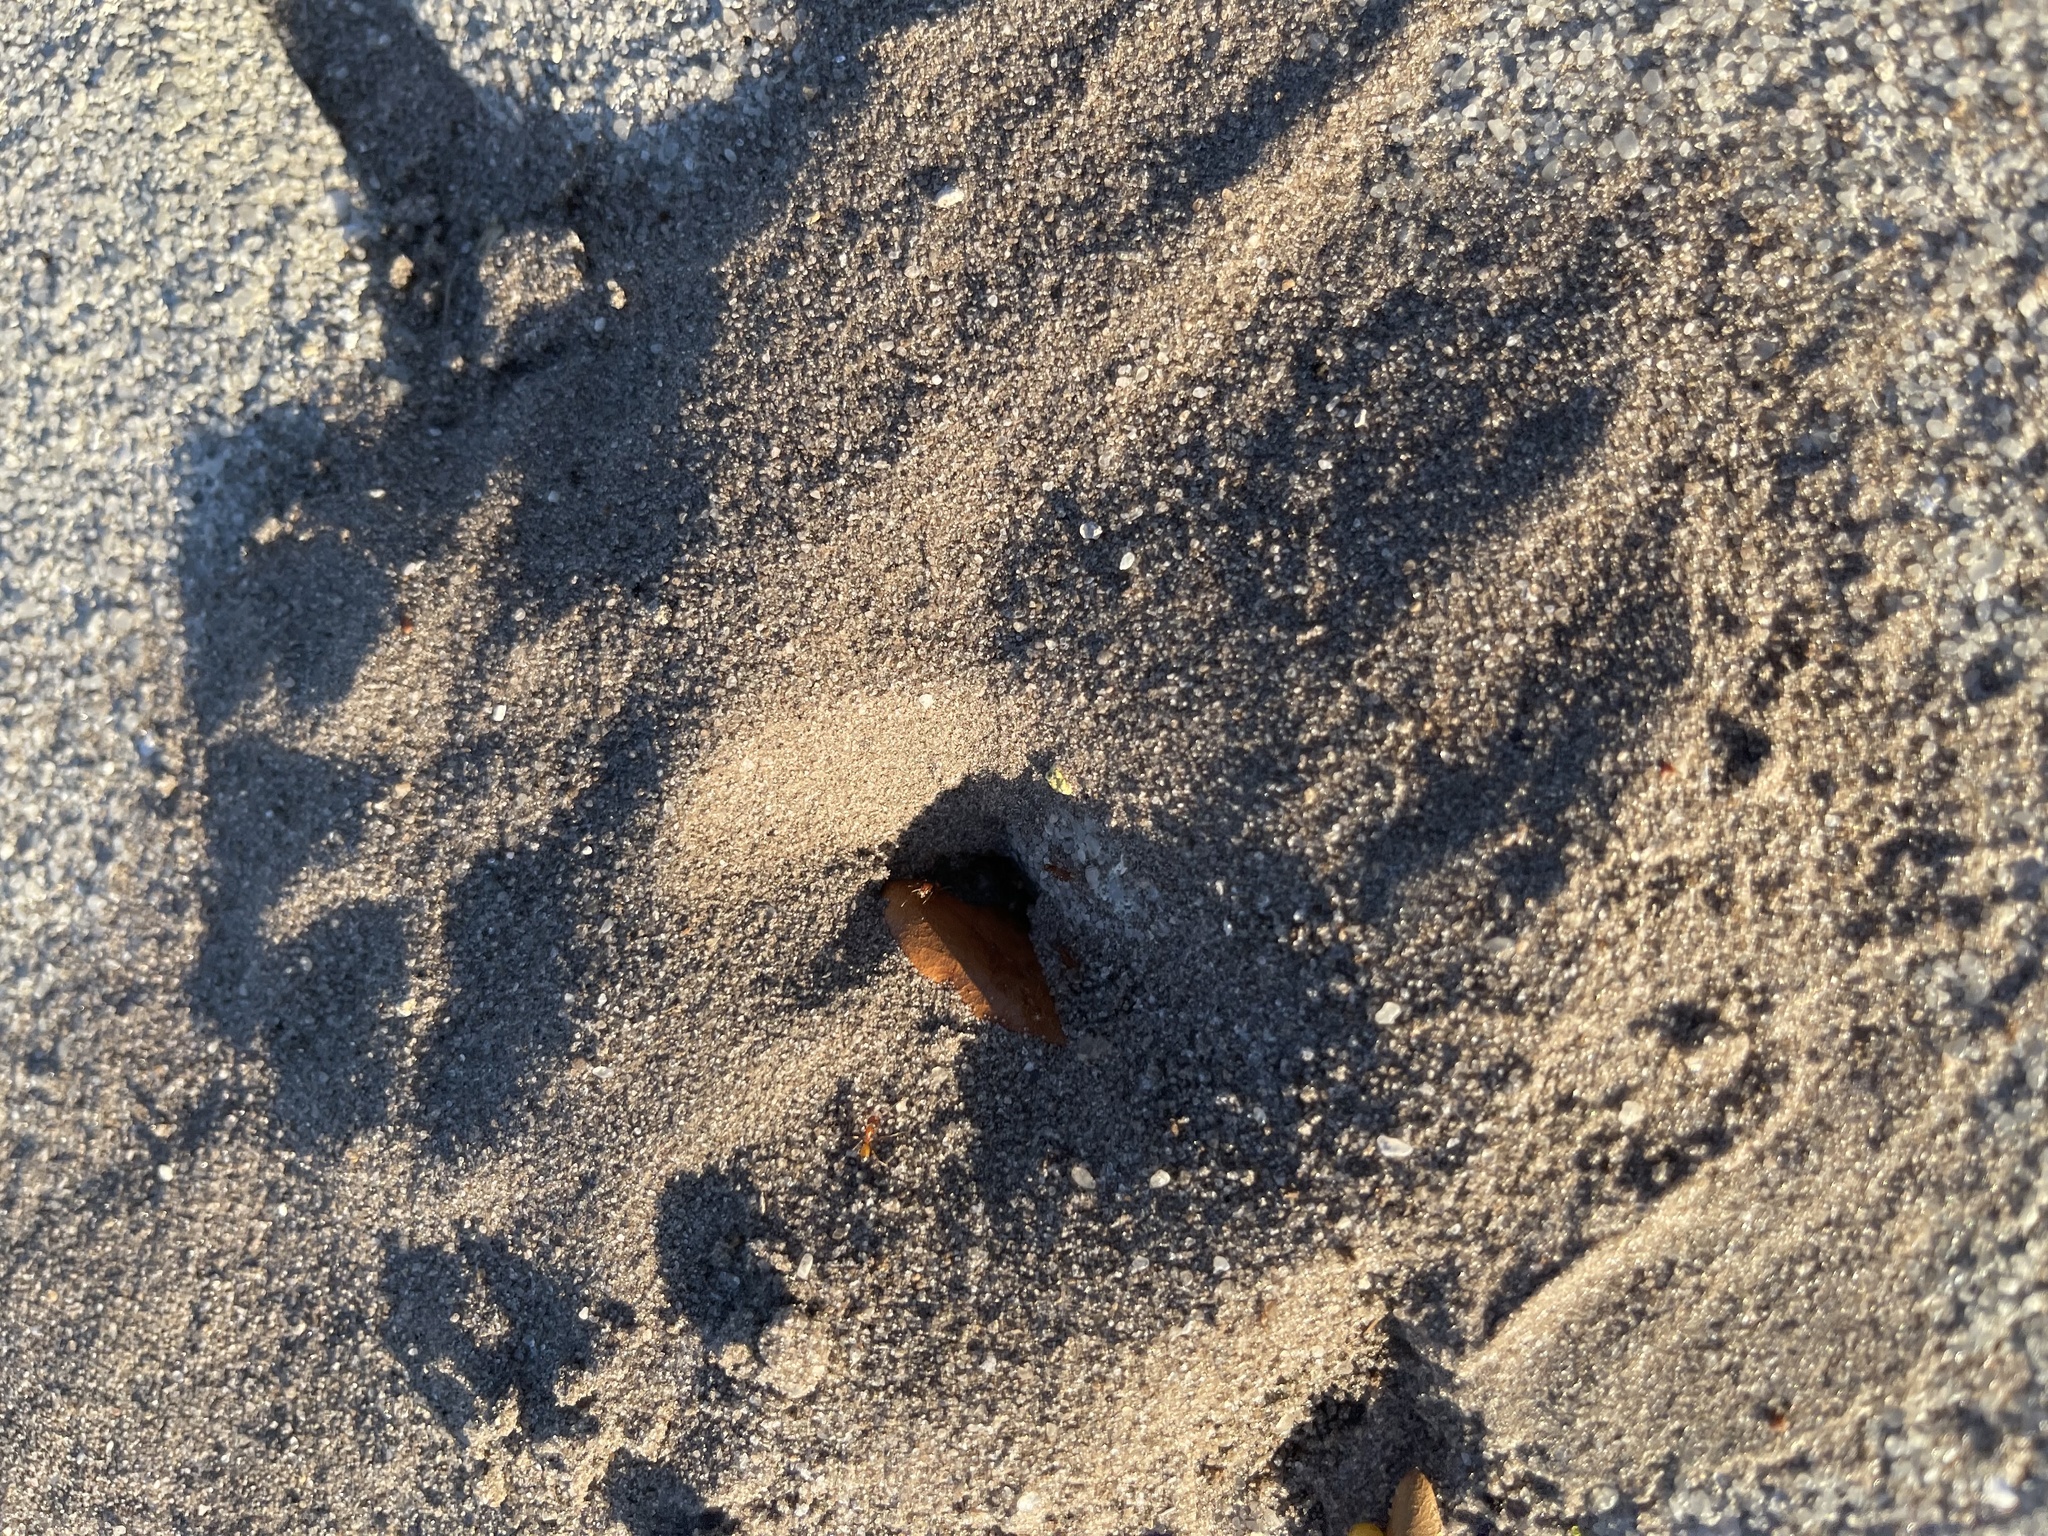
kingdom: Animalia
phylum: Arthropoda
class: Insecta
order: Hymenoptera
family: Formicidae
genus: Dorymyrmex
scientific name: Dorymyrmex bureni
